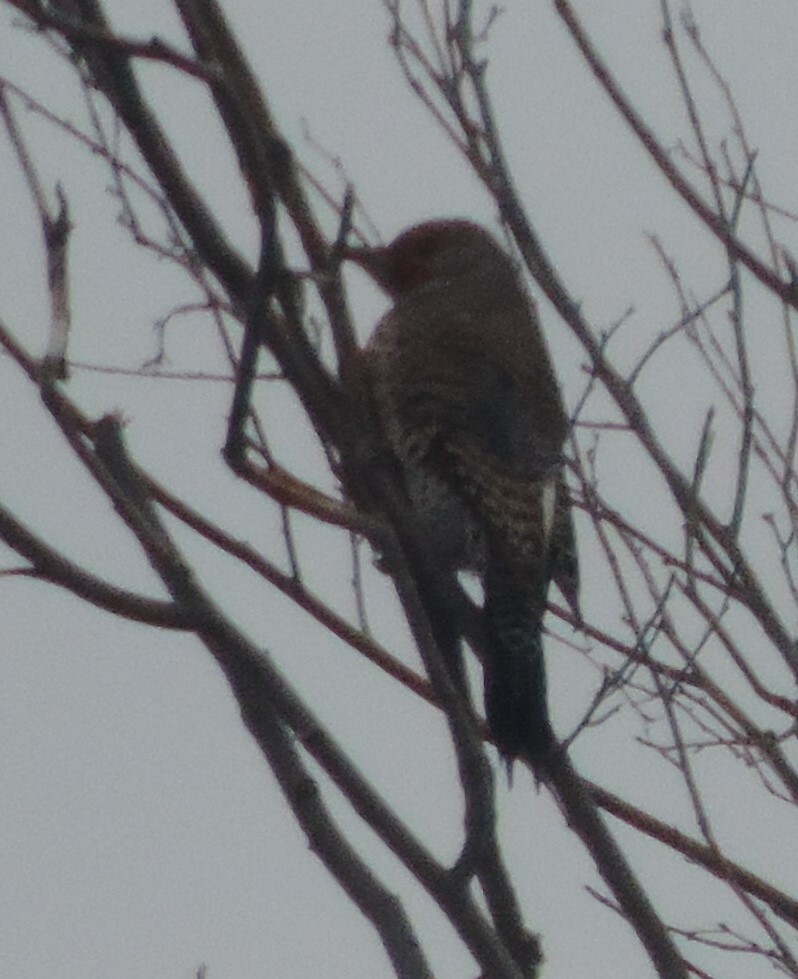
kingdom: Animalia
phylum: Chordata
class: Aves
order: Piciformes
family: Picidae
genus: Colaptes
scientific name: Colaptes auratus
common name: Northern flicker
